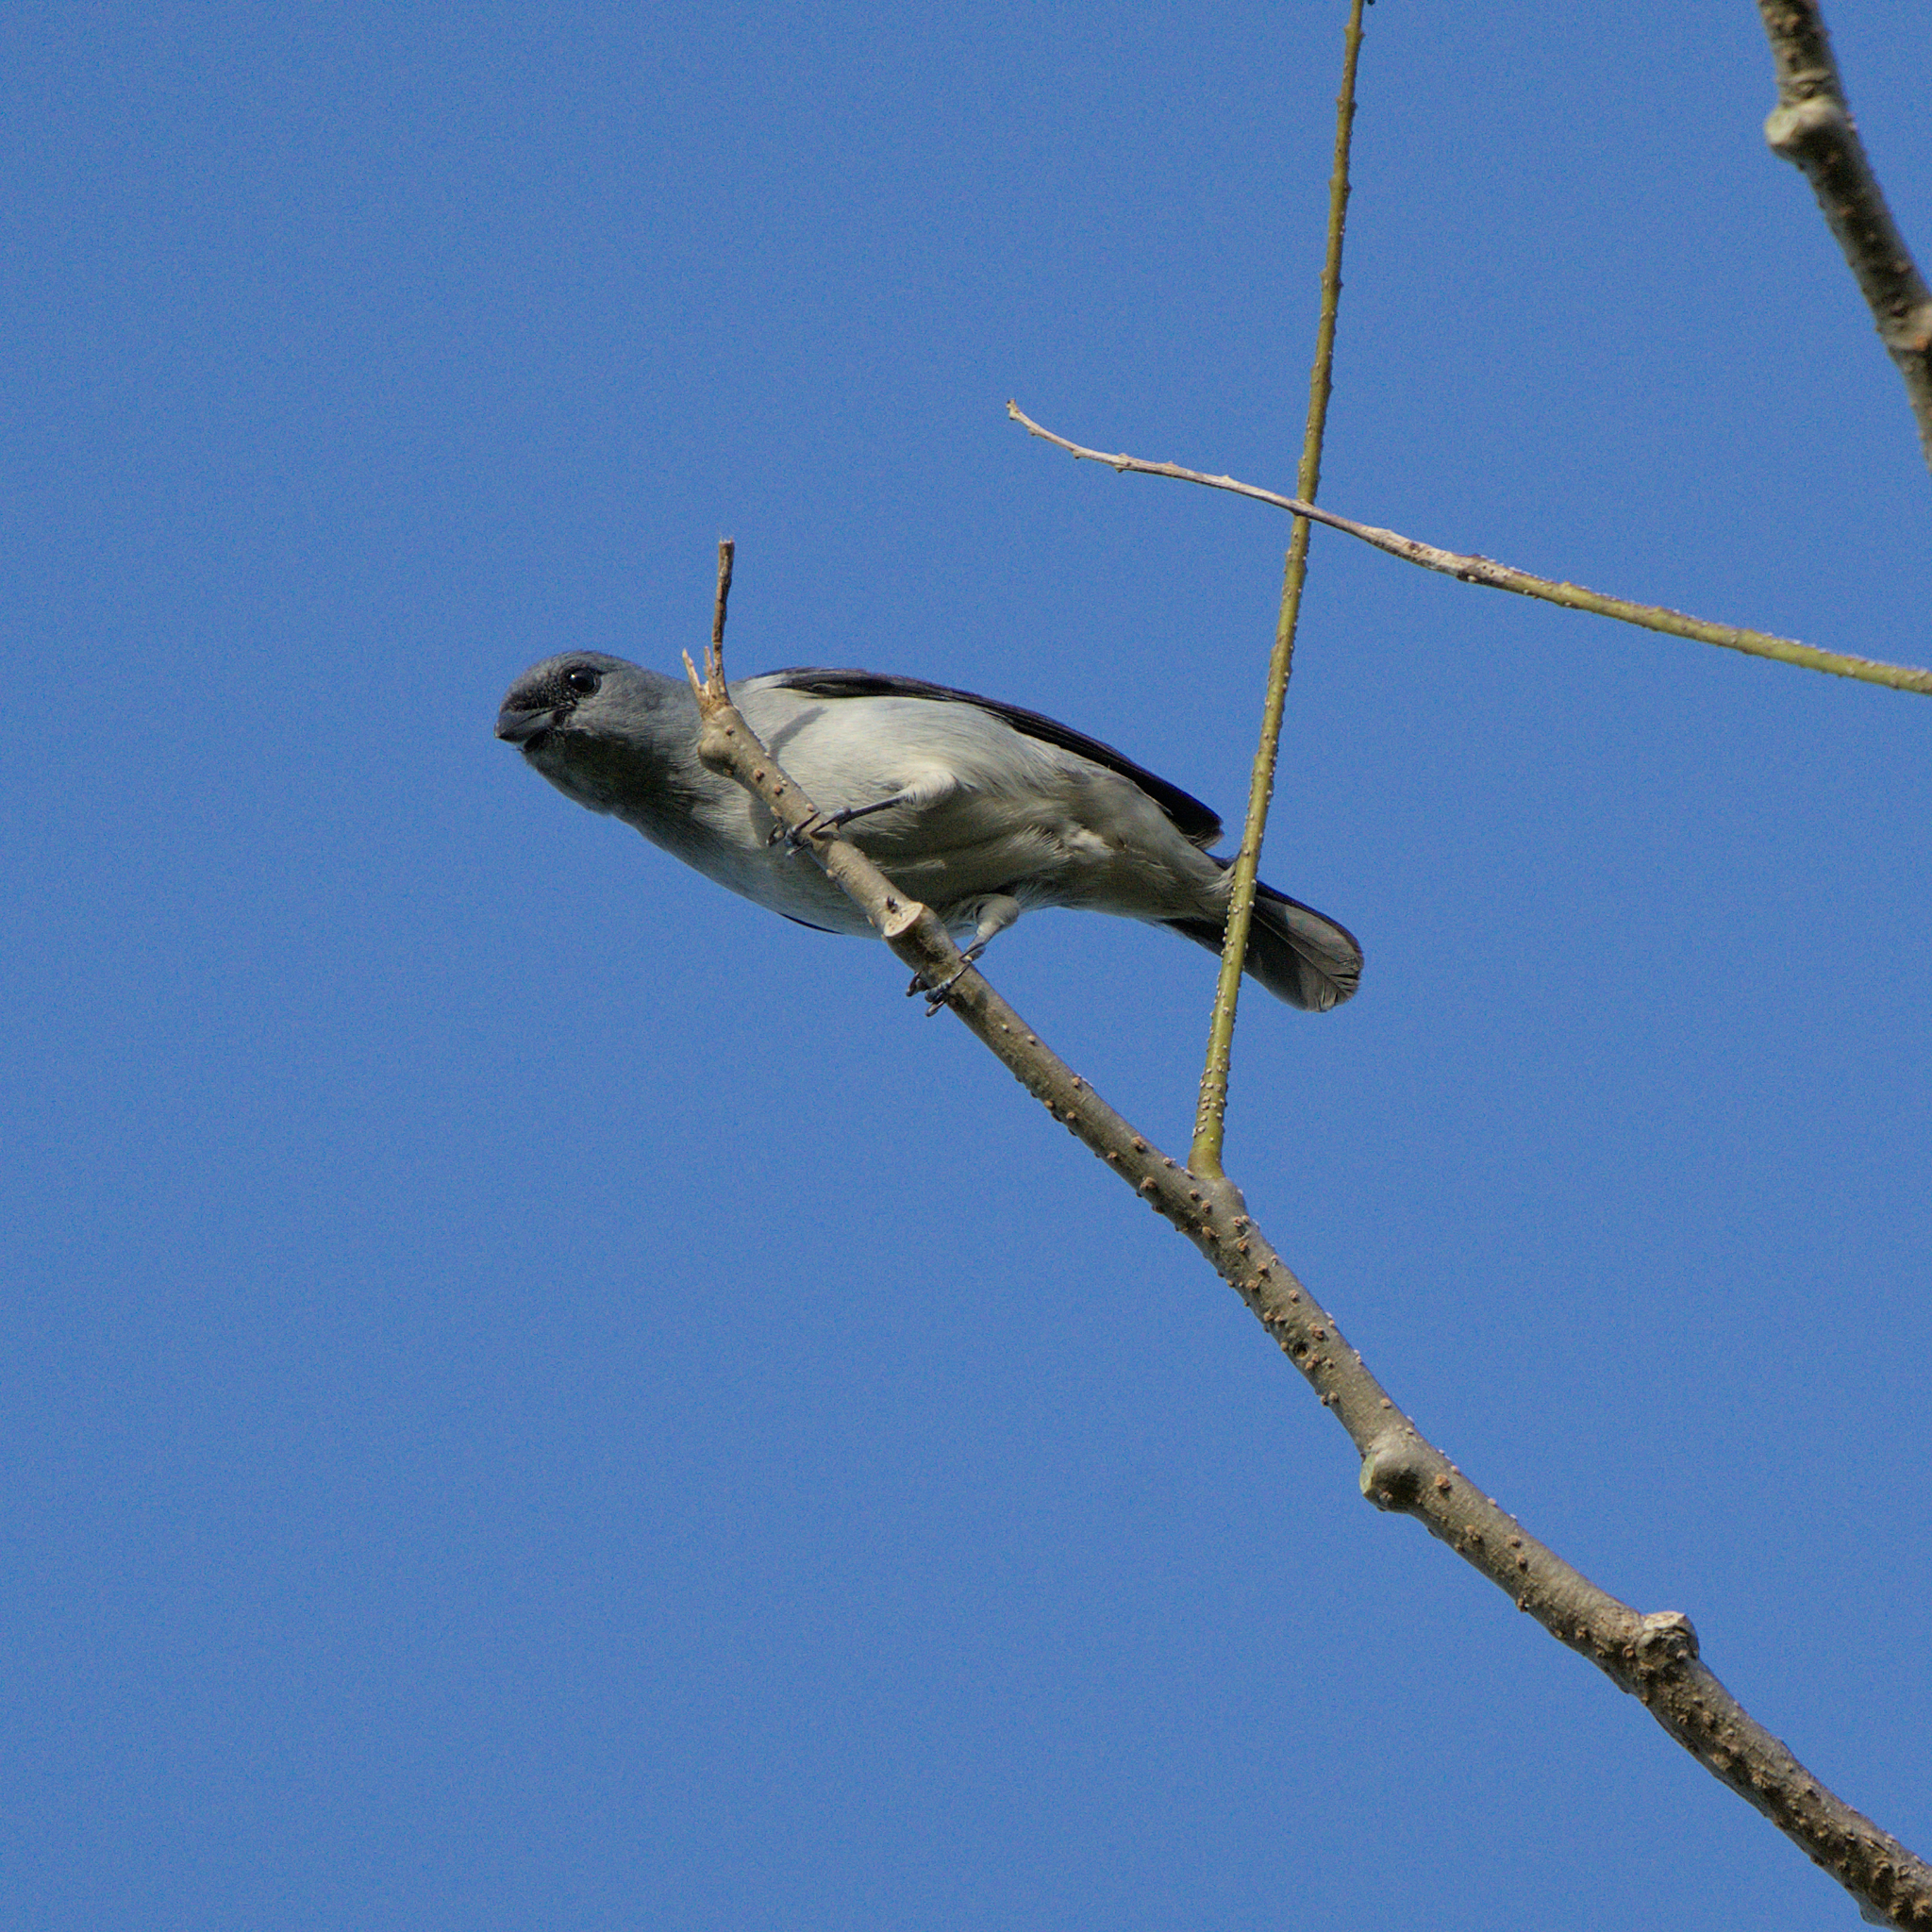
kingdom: Animalia
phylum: Chordata
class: Aves
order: Passeriformes
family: Thraupidae
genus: Tangara
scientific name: Tangara inornata
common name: Plain-colored tanager
